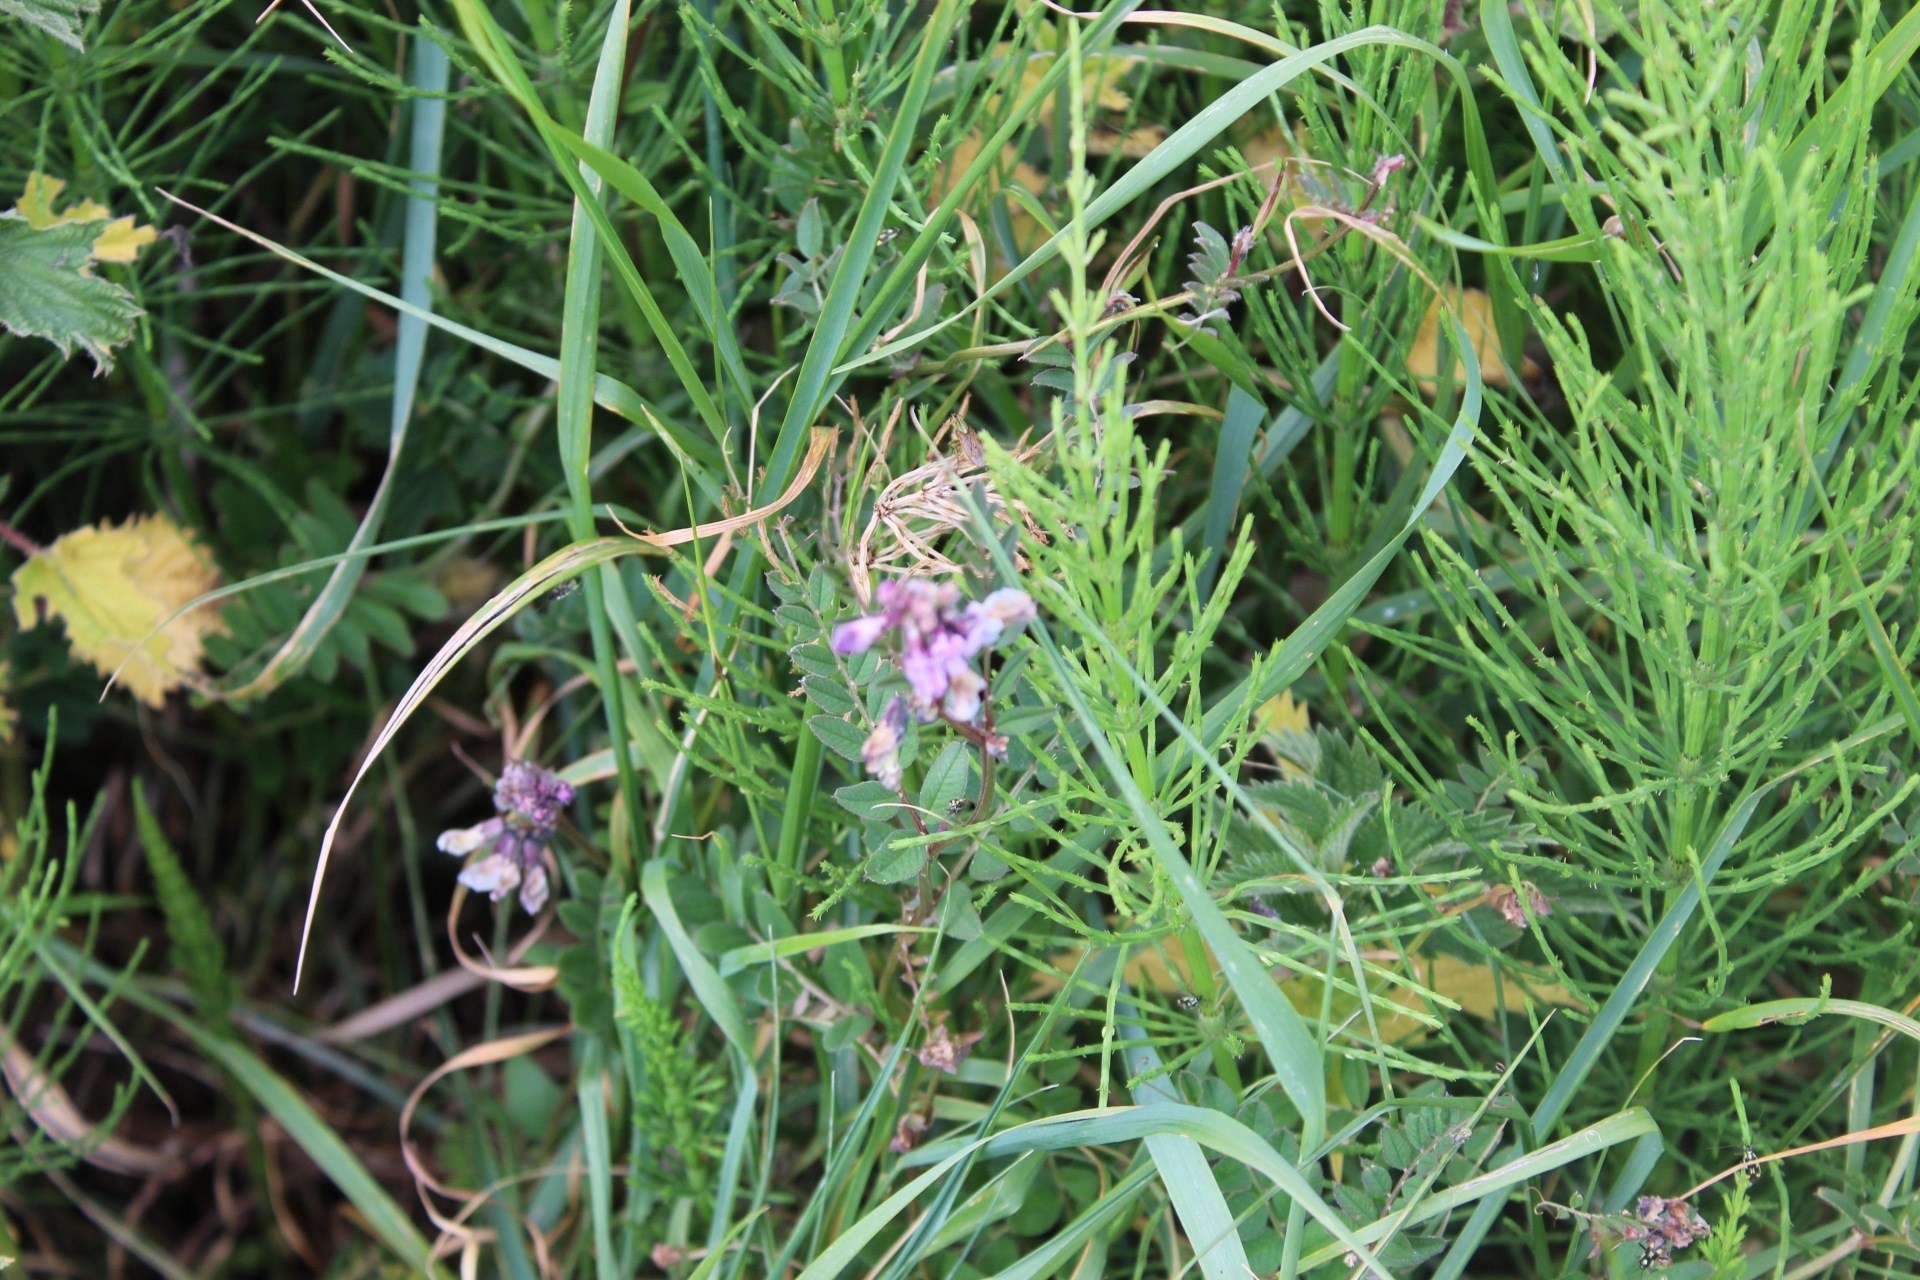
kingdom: Plantae
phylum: Tracheophyta
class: Magnoliopsida
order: Fabales
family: Fabaceae
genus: Vicia
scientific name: Vicia sepium
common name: Bush vetch
